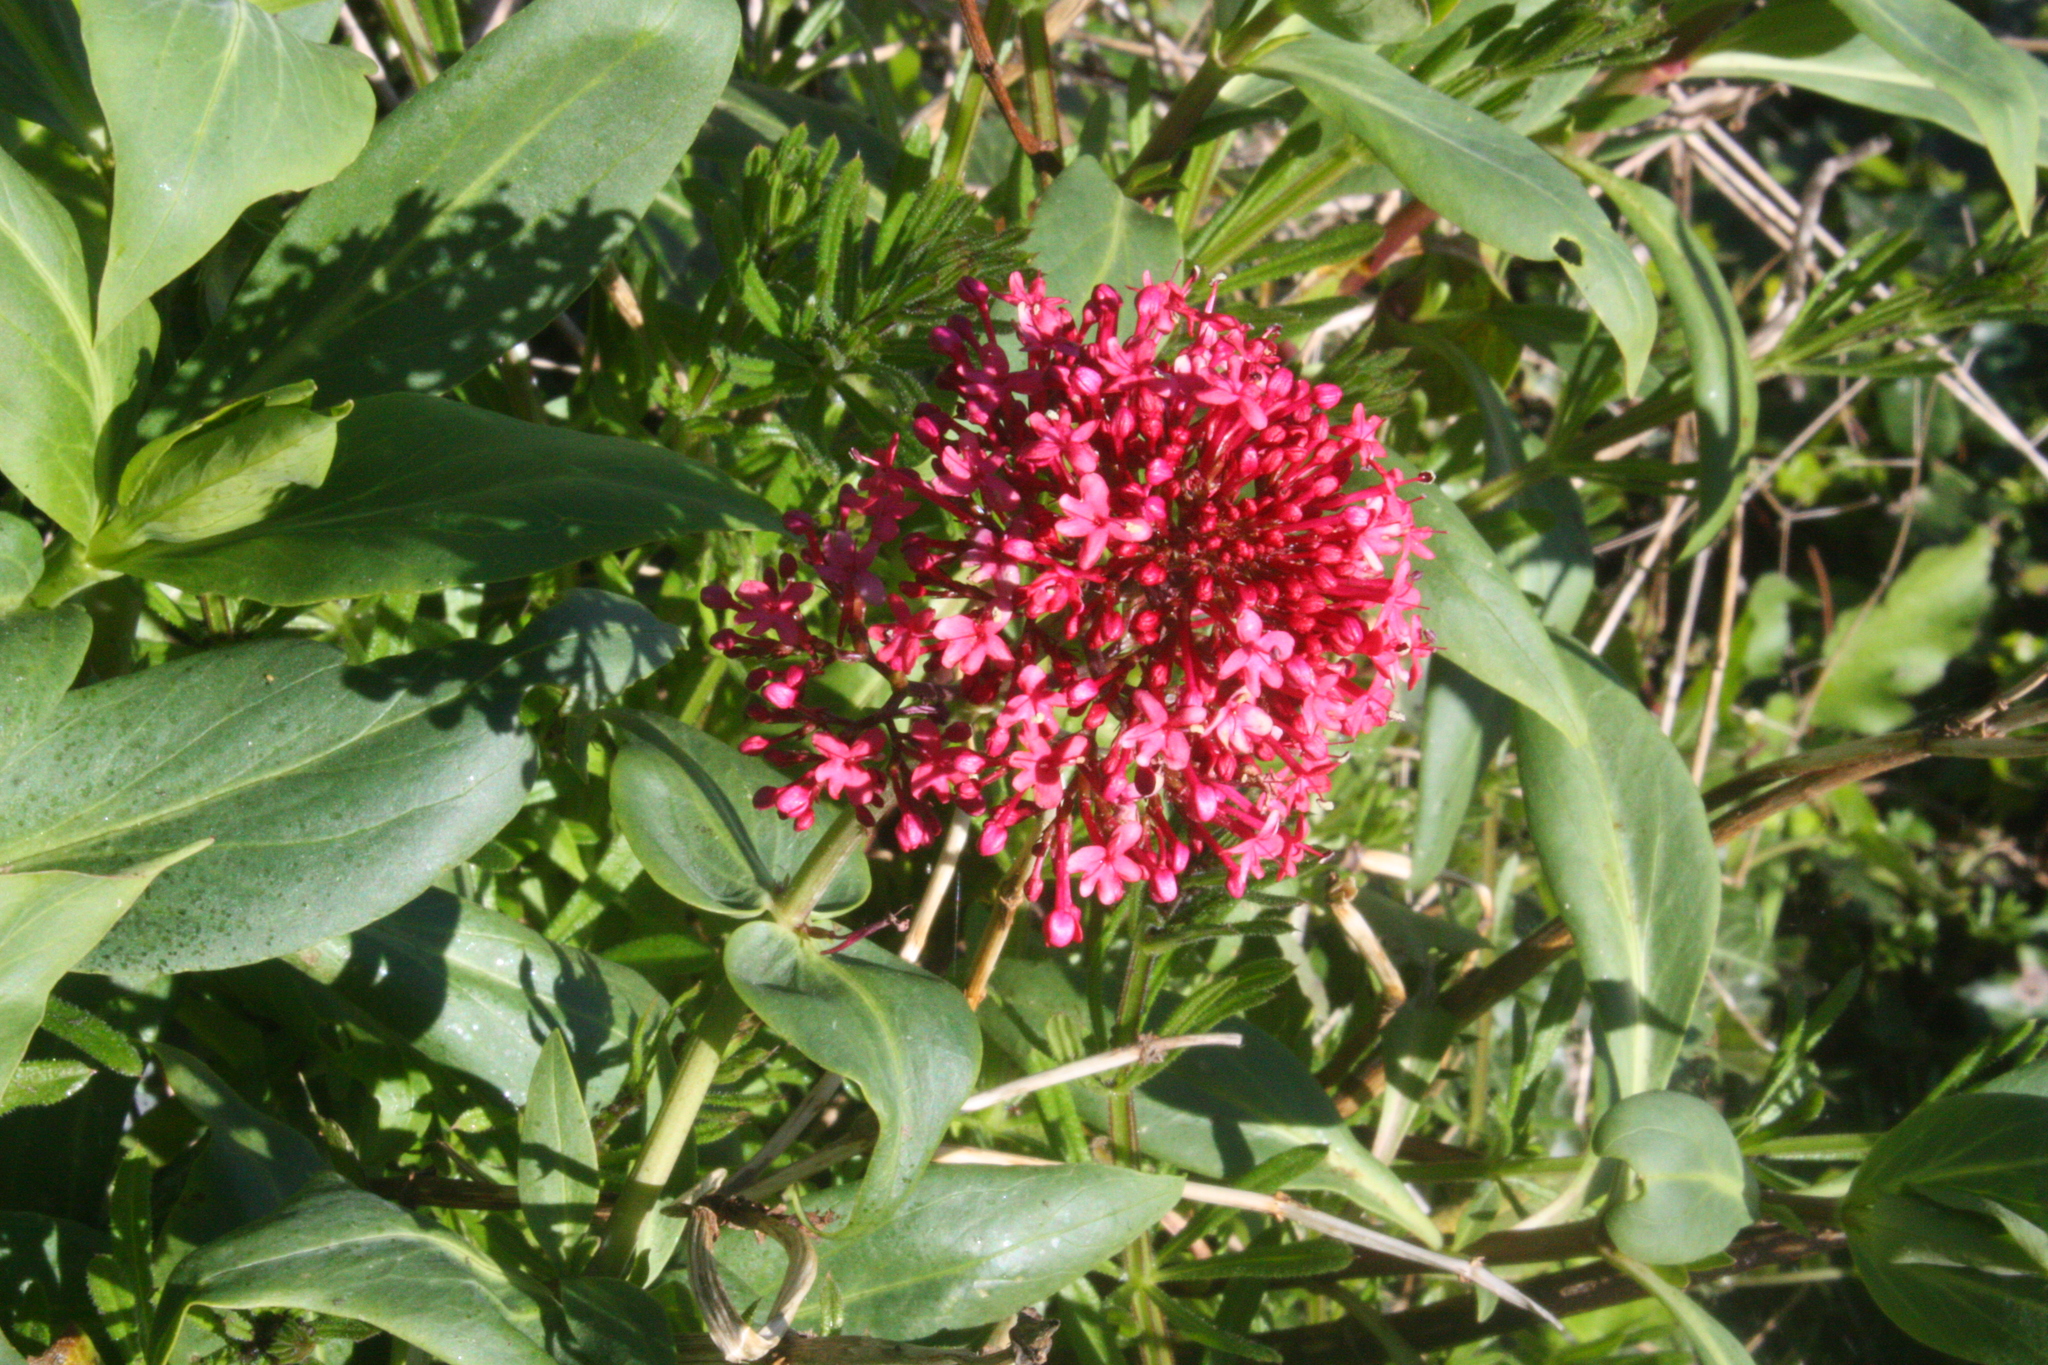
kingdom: Plantae
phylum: Tracheophyta
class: Magnoliopsida
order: Dipsacales
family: Caprifoliaceae
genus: Centranthus
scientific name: Centranthus ruber
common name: Red valerian
